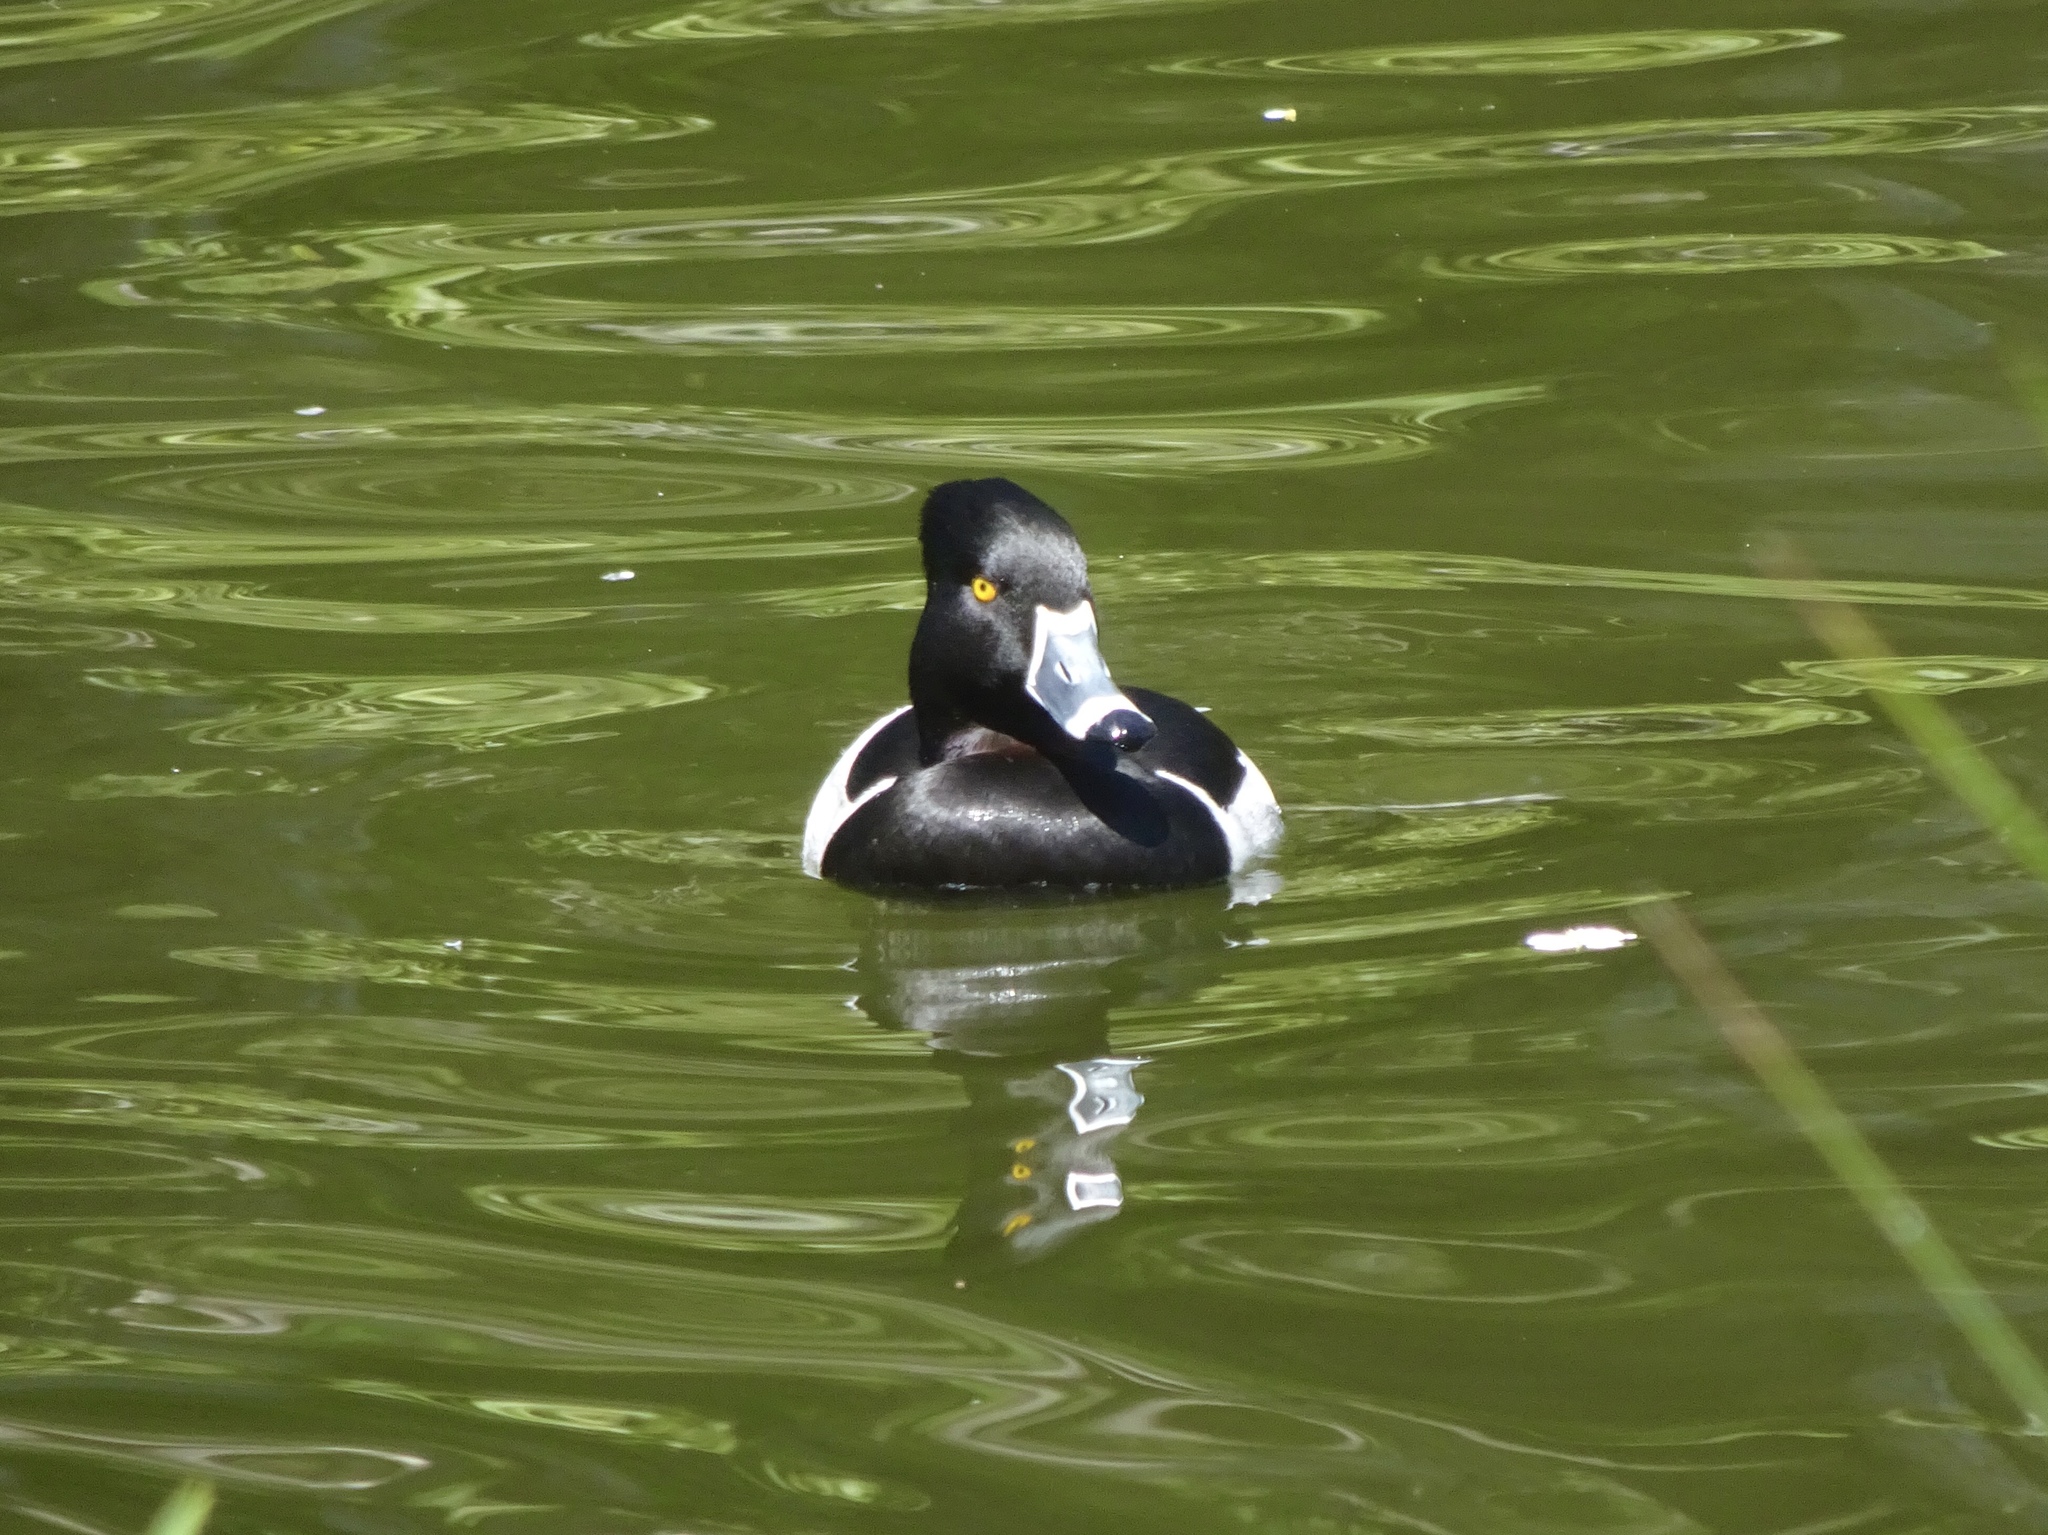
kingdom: Animalia
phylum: Chordata
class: Aves
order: Anseriformes
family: Anatidae
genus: Aythya
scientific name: Aythya collaris
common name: Ring-necked duck
